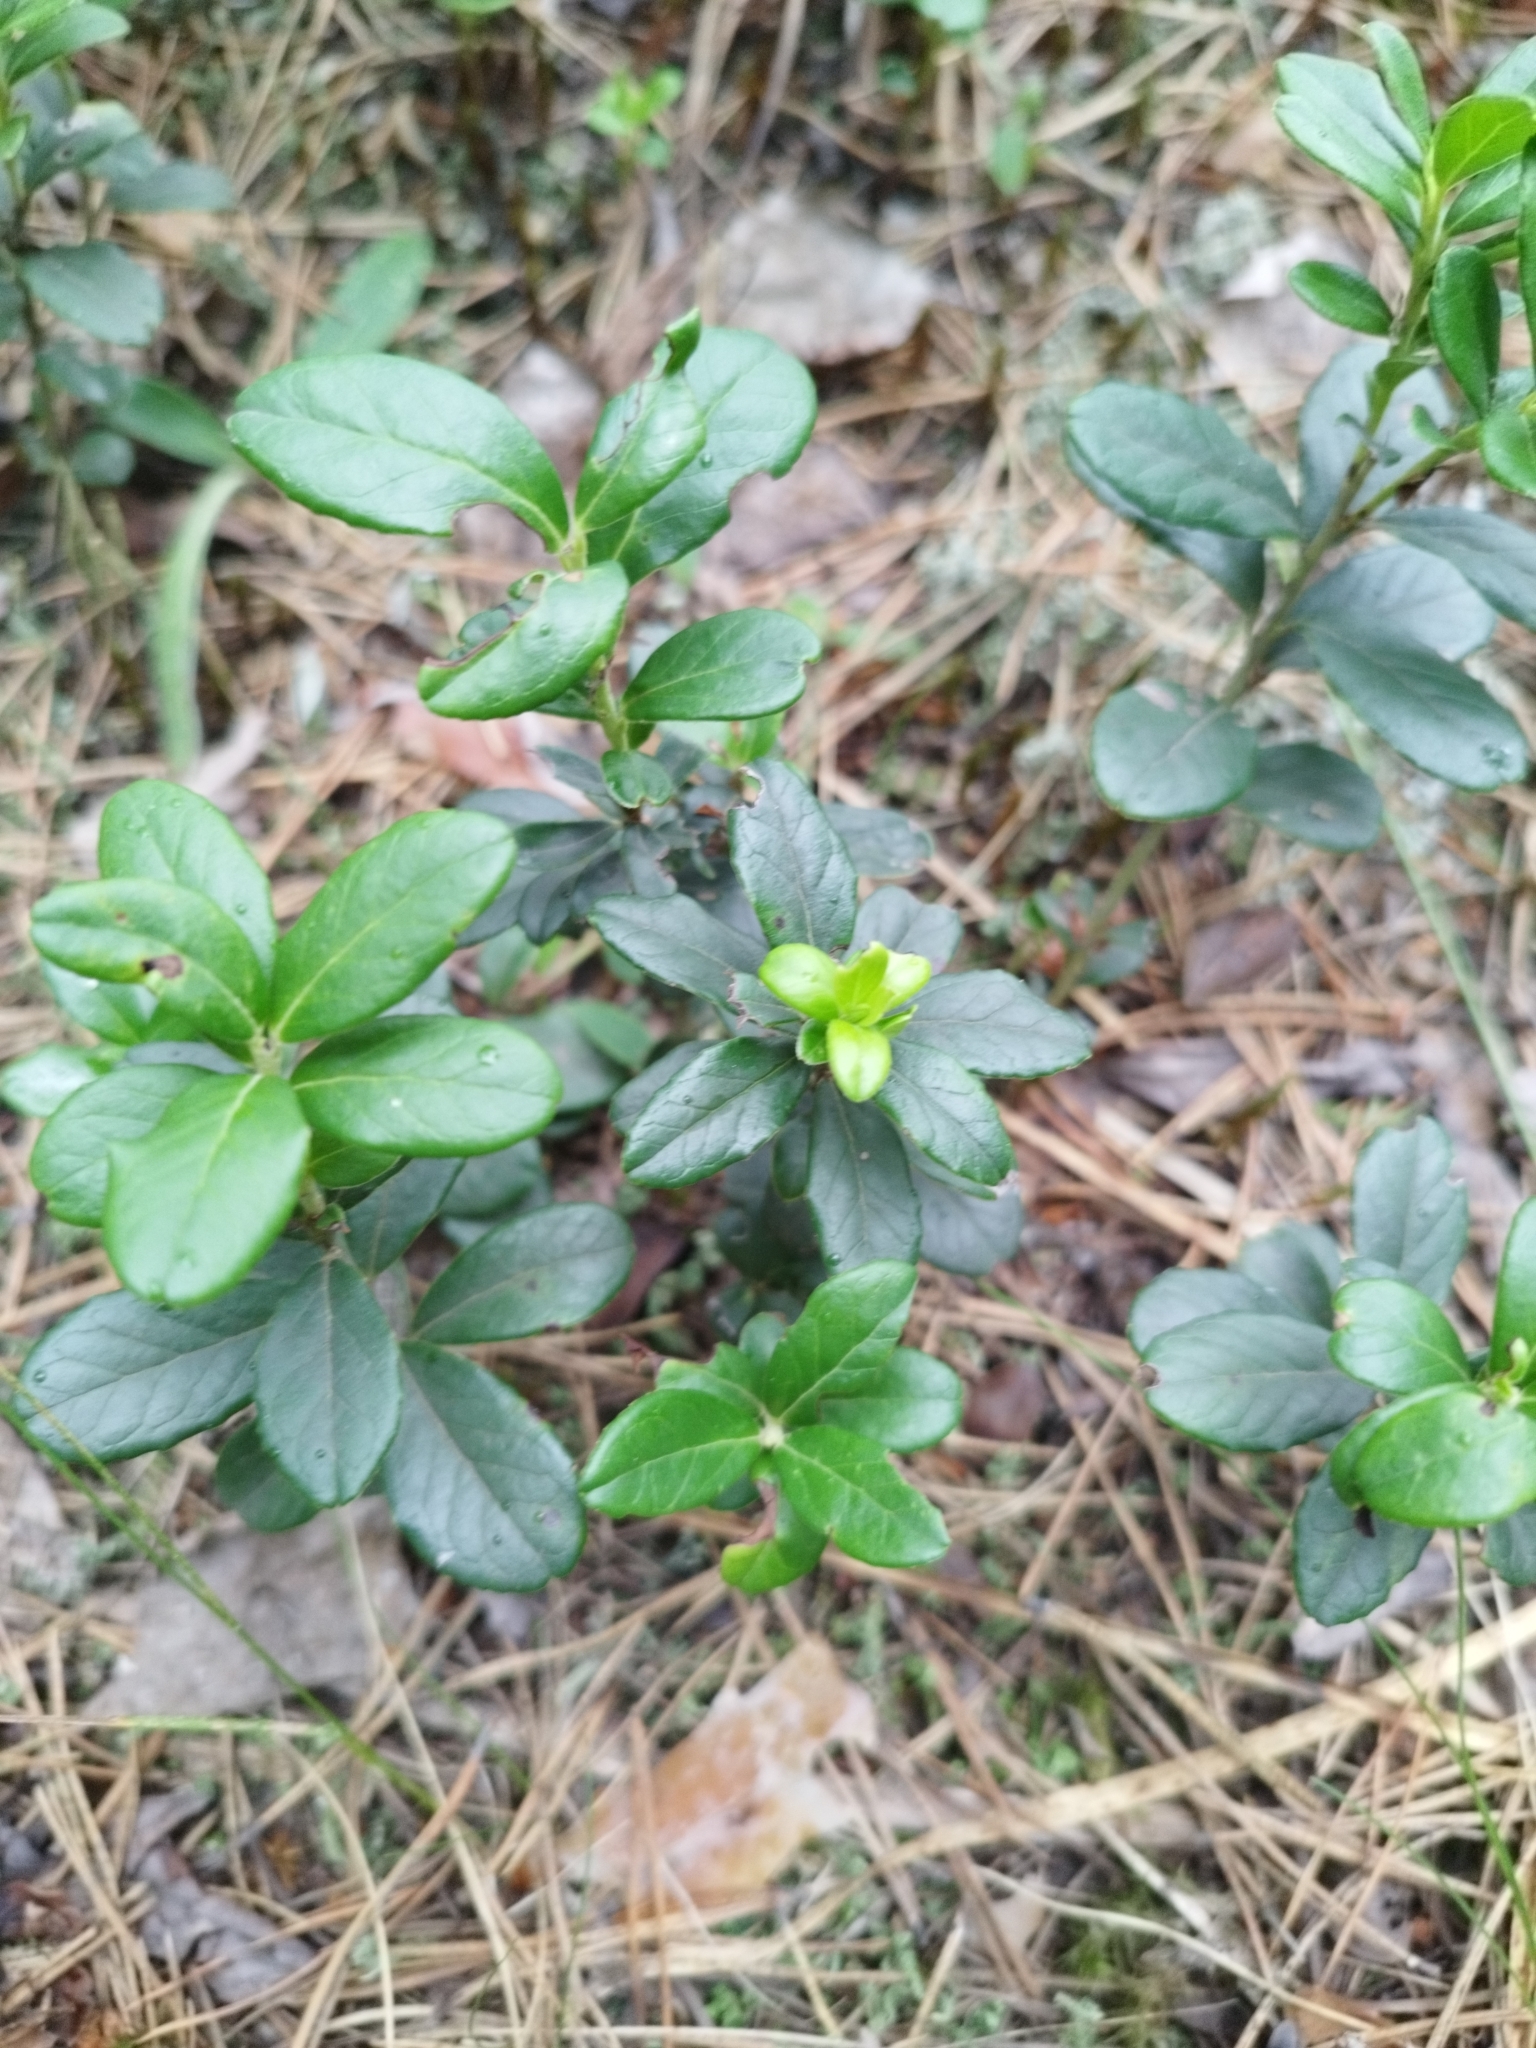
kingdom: Plantae
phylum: Tracheophyta
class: Magnoliopsida
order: Ericales
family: Ericaceae
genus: Vaccinium
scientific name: Vaccinium vitis-idaea
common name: Cowberry
